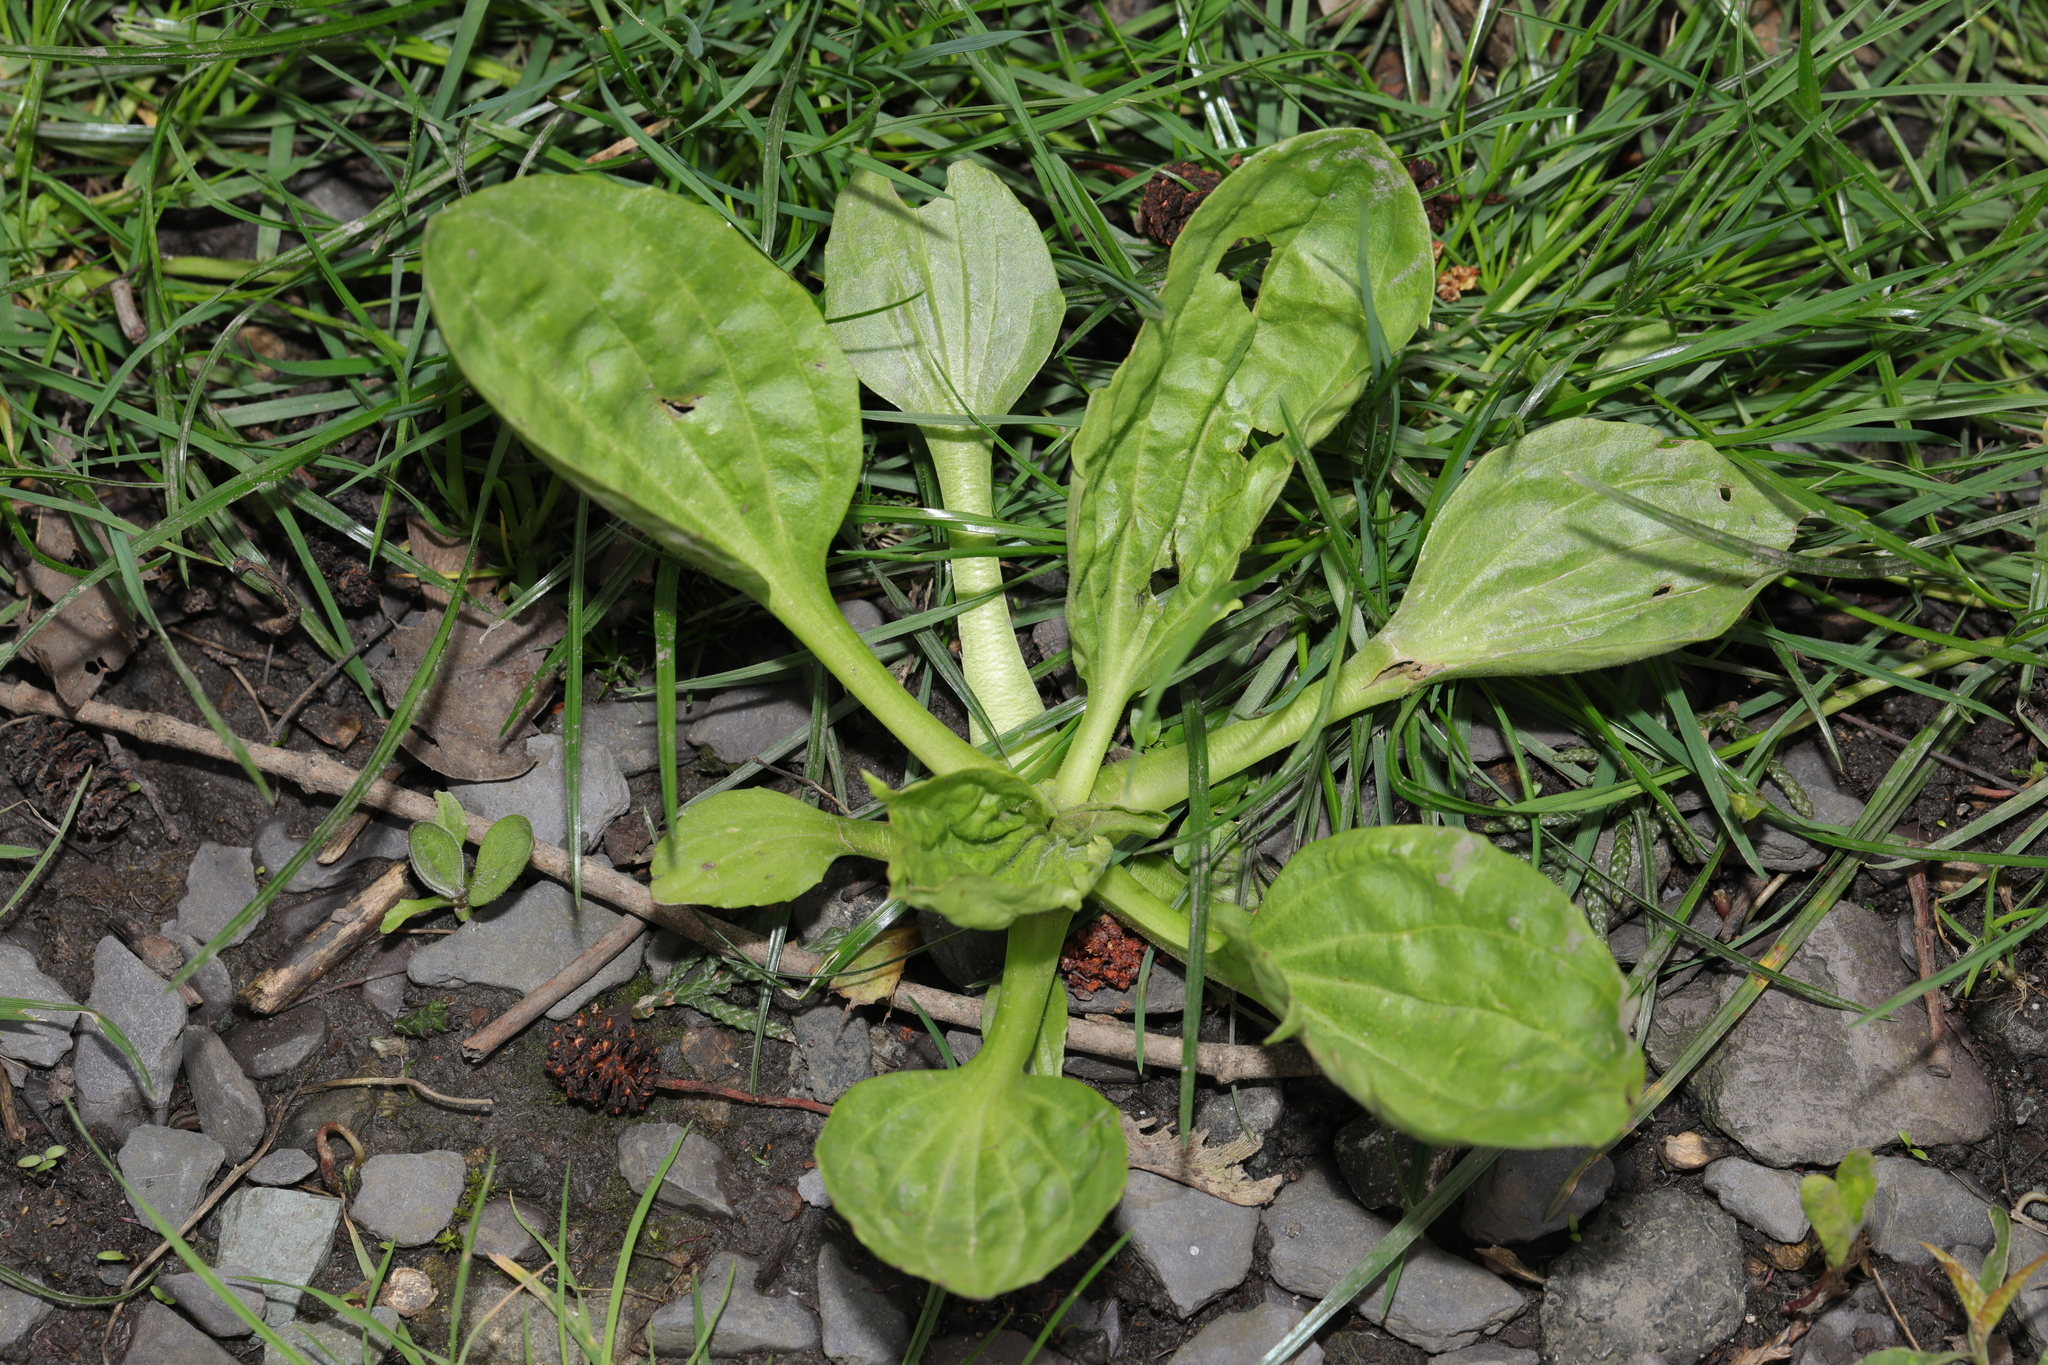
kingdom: Plantae
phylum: Tracheophyta
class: Magnoliopsida
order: Lamiales
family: Plantaginaceae
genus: Plantago
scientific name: Plantago major
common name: Common plantain
